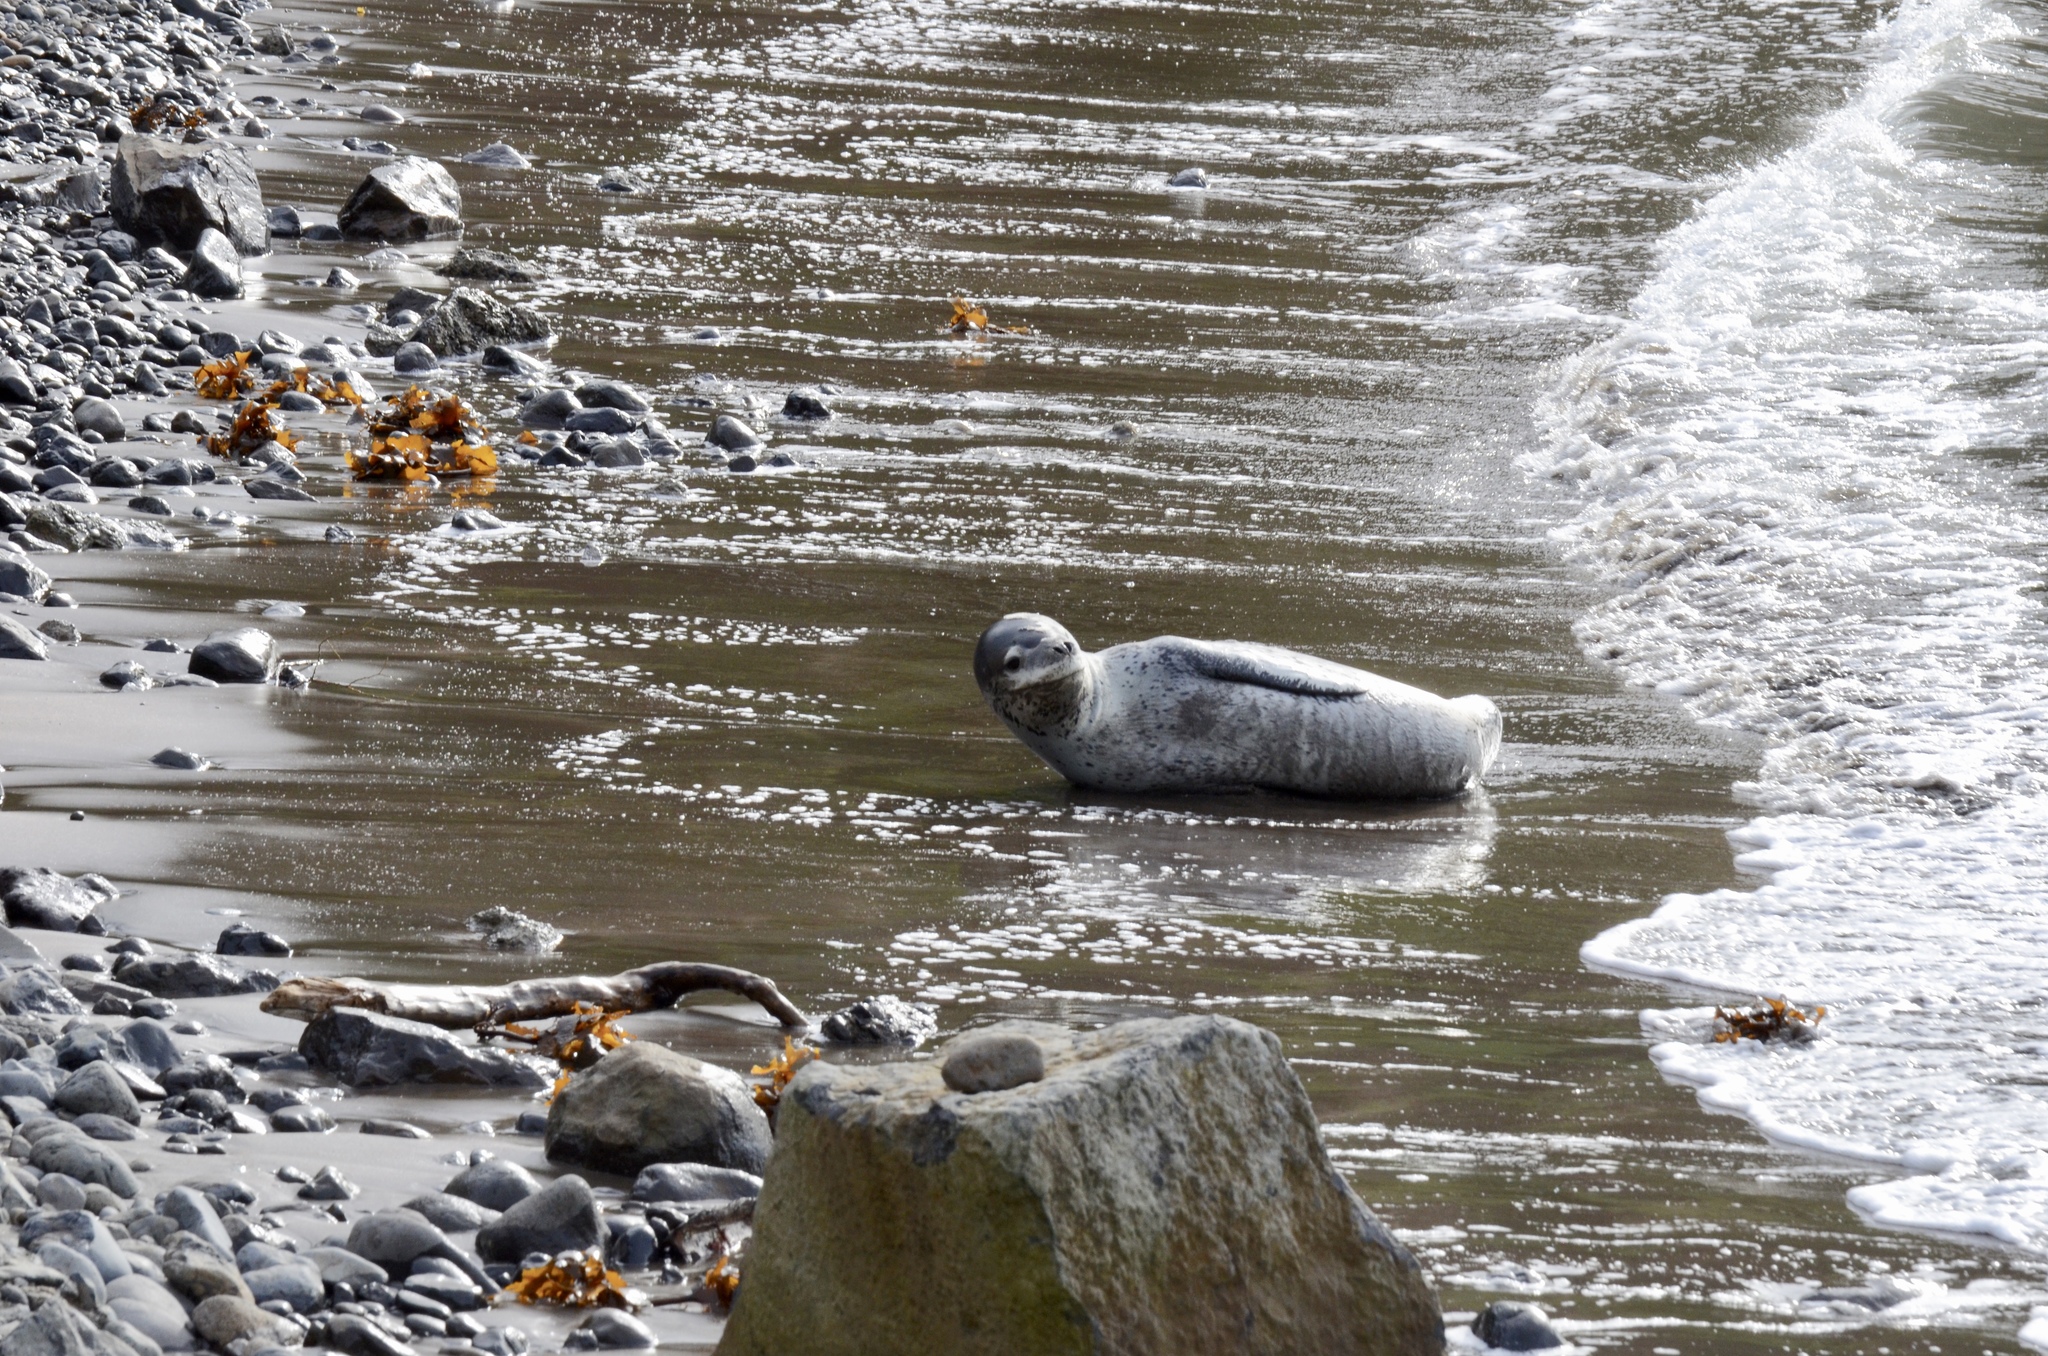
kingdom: Animalia
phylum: Chordata
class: Mammalia
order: Carnivora
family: Phocidae
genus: Hydrurga
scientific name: Hydrurga leptonyx
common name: Leopard seal
